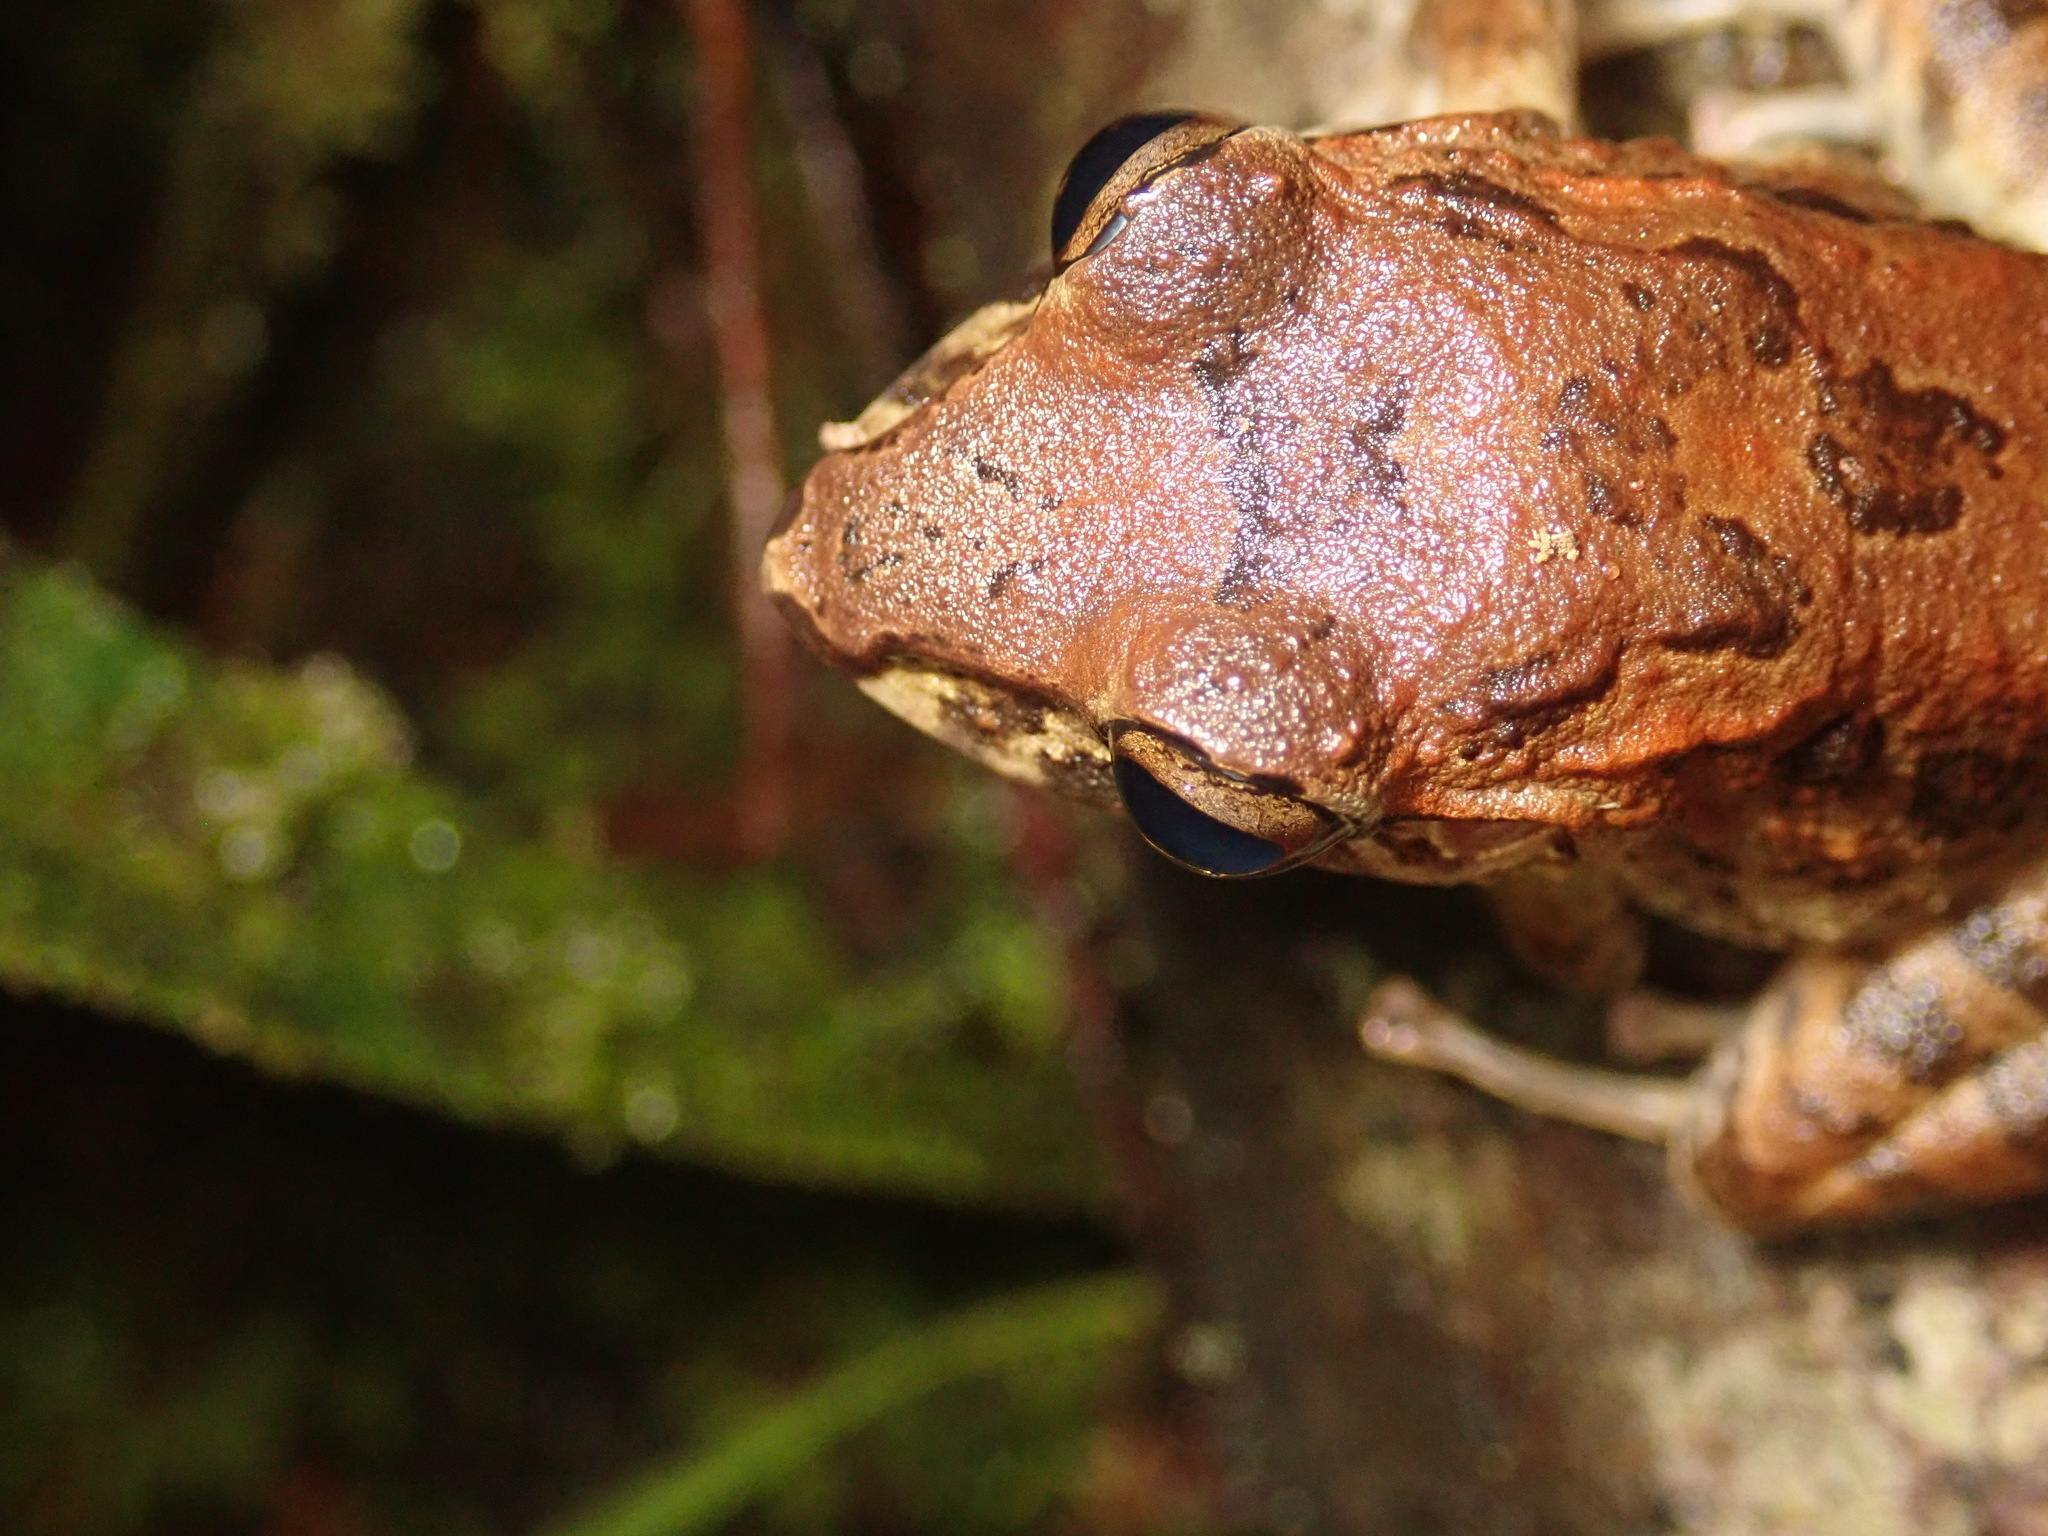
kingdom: Animalia
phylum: Chordata
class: Amphibia
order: Anura
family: Craugastoridae
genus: Craugastor
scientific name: Craugastor fitzingeri
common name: Fitzinger's robber frog
